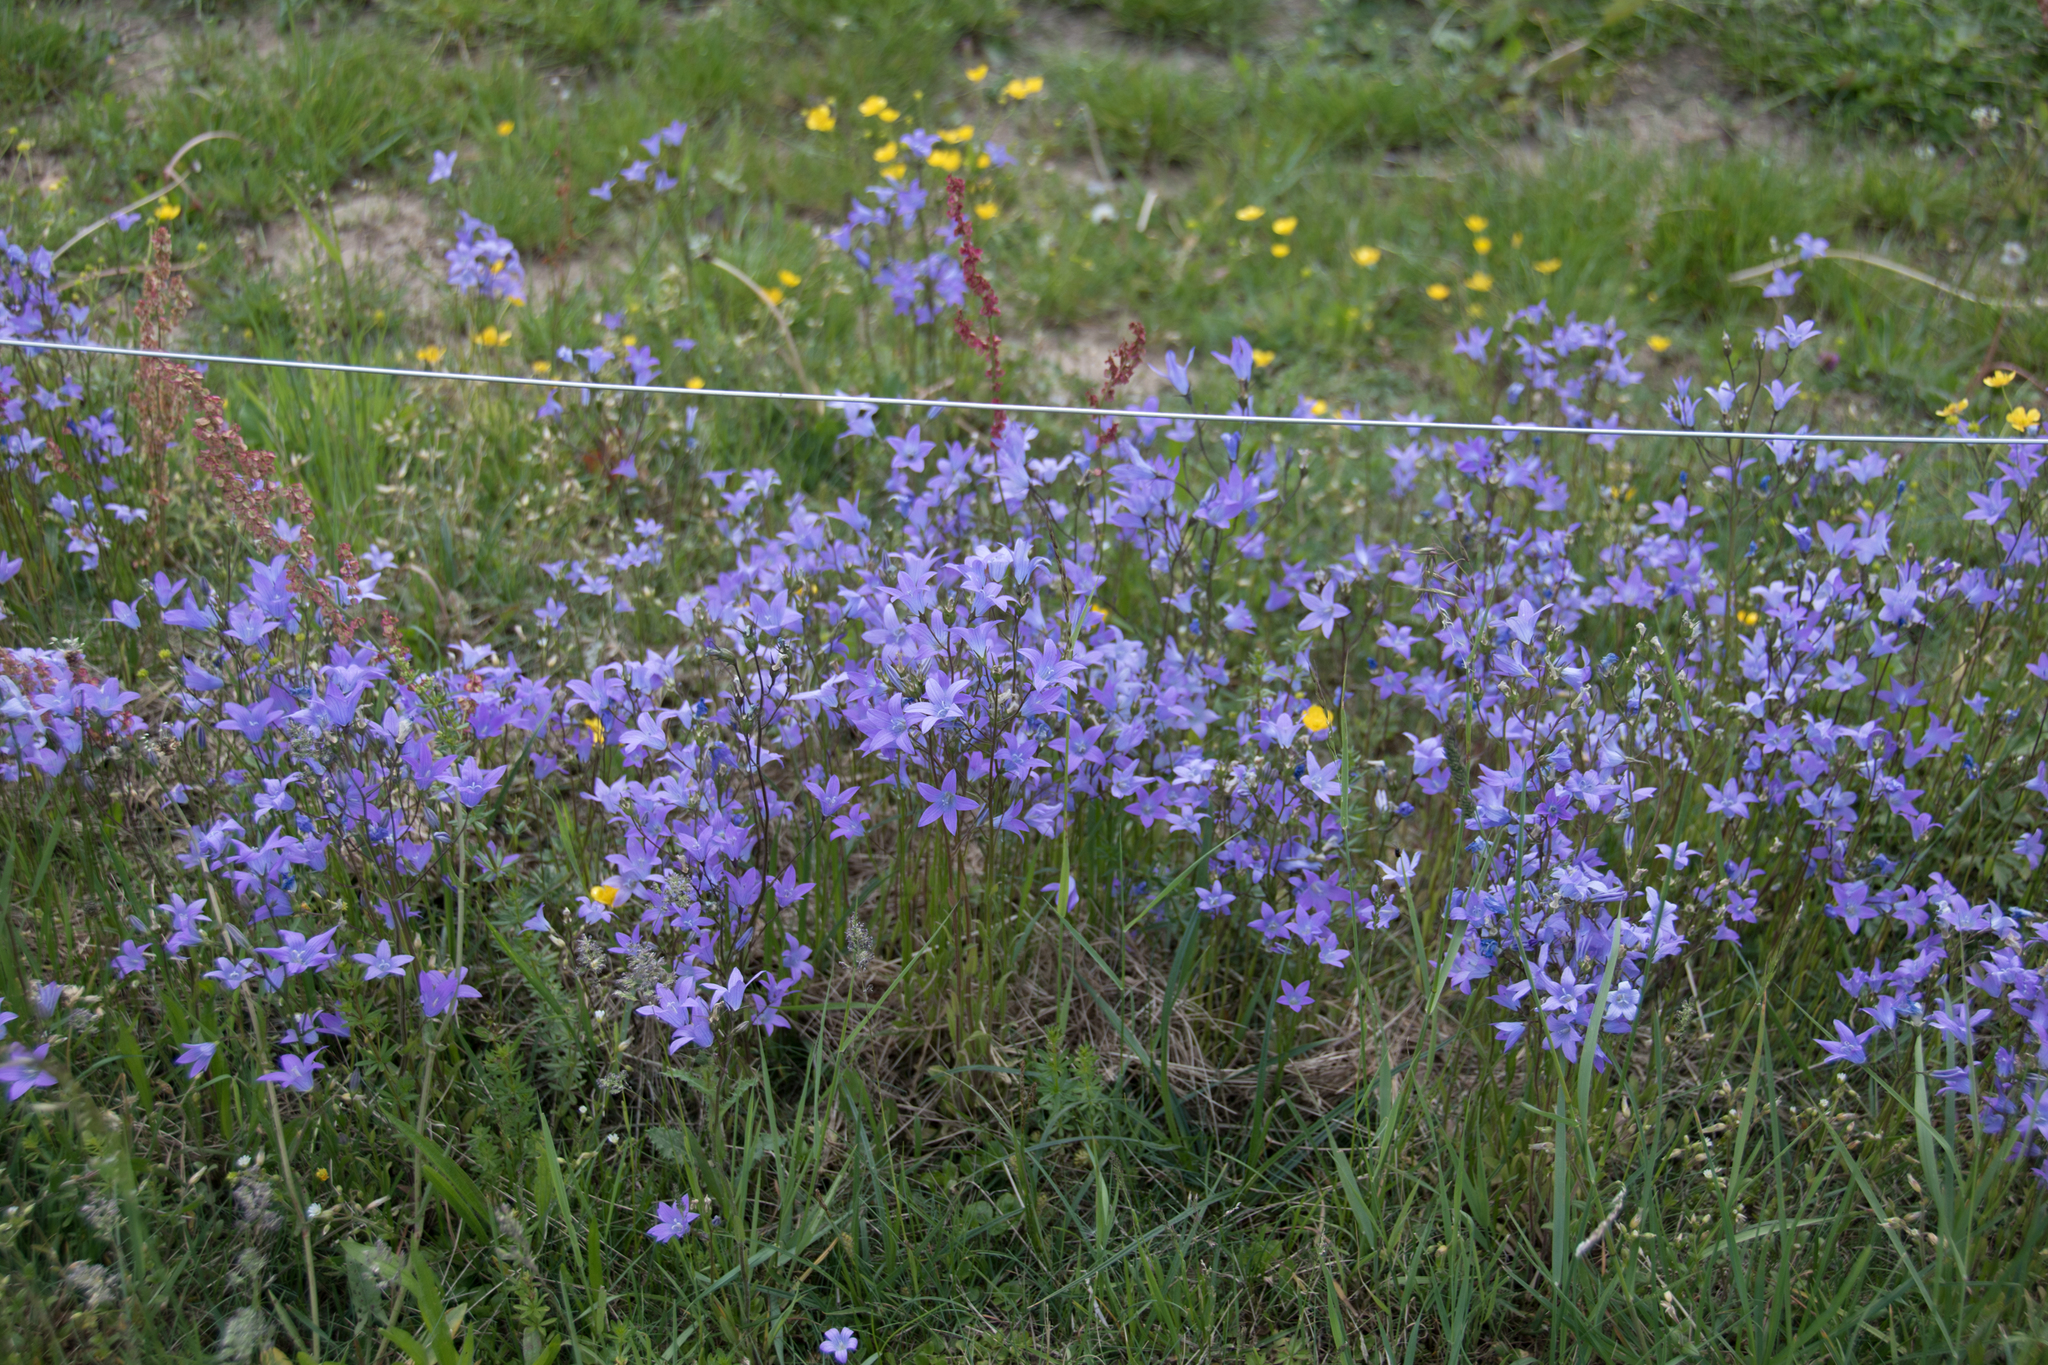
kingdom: Plantae
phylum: Tracheophyta
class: Magnoliopsida
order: Asterales
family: Campanulaceae
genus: Campanula
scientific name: Campanula patula
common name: Spreading bellflower
